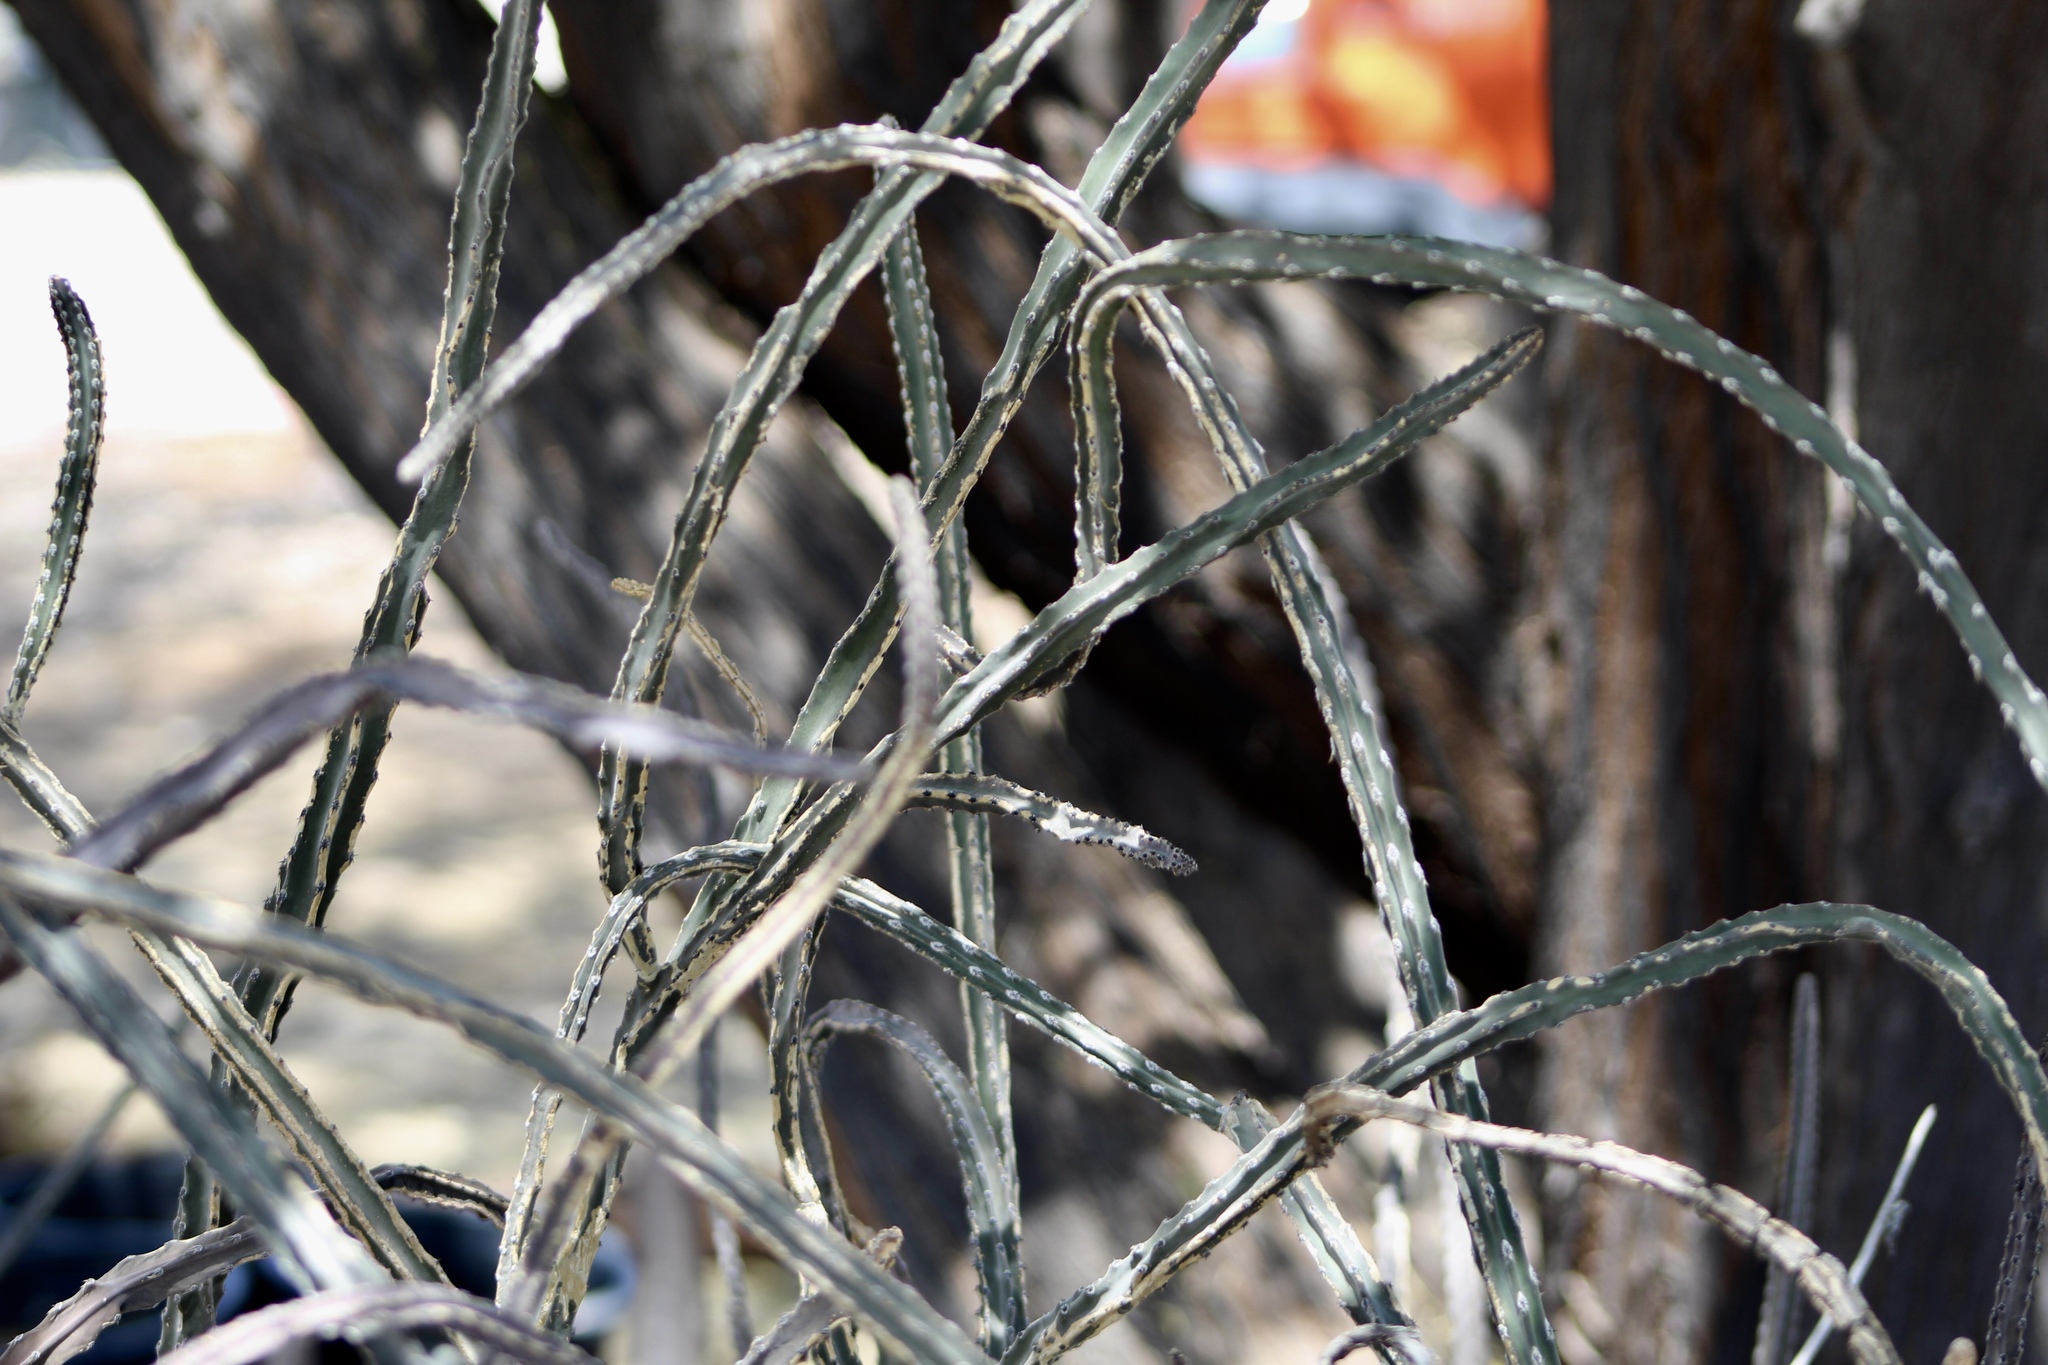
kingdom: Plantae
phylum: Tracheophyta
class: Magnoliopsida
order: Caryophyllales
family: Cactaceae
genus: Peniocereus
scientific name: Peniocereus greggii
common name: Desert night-blooming cereus
